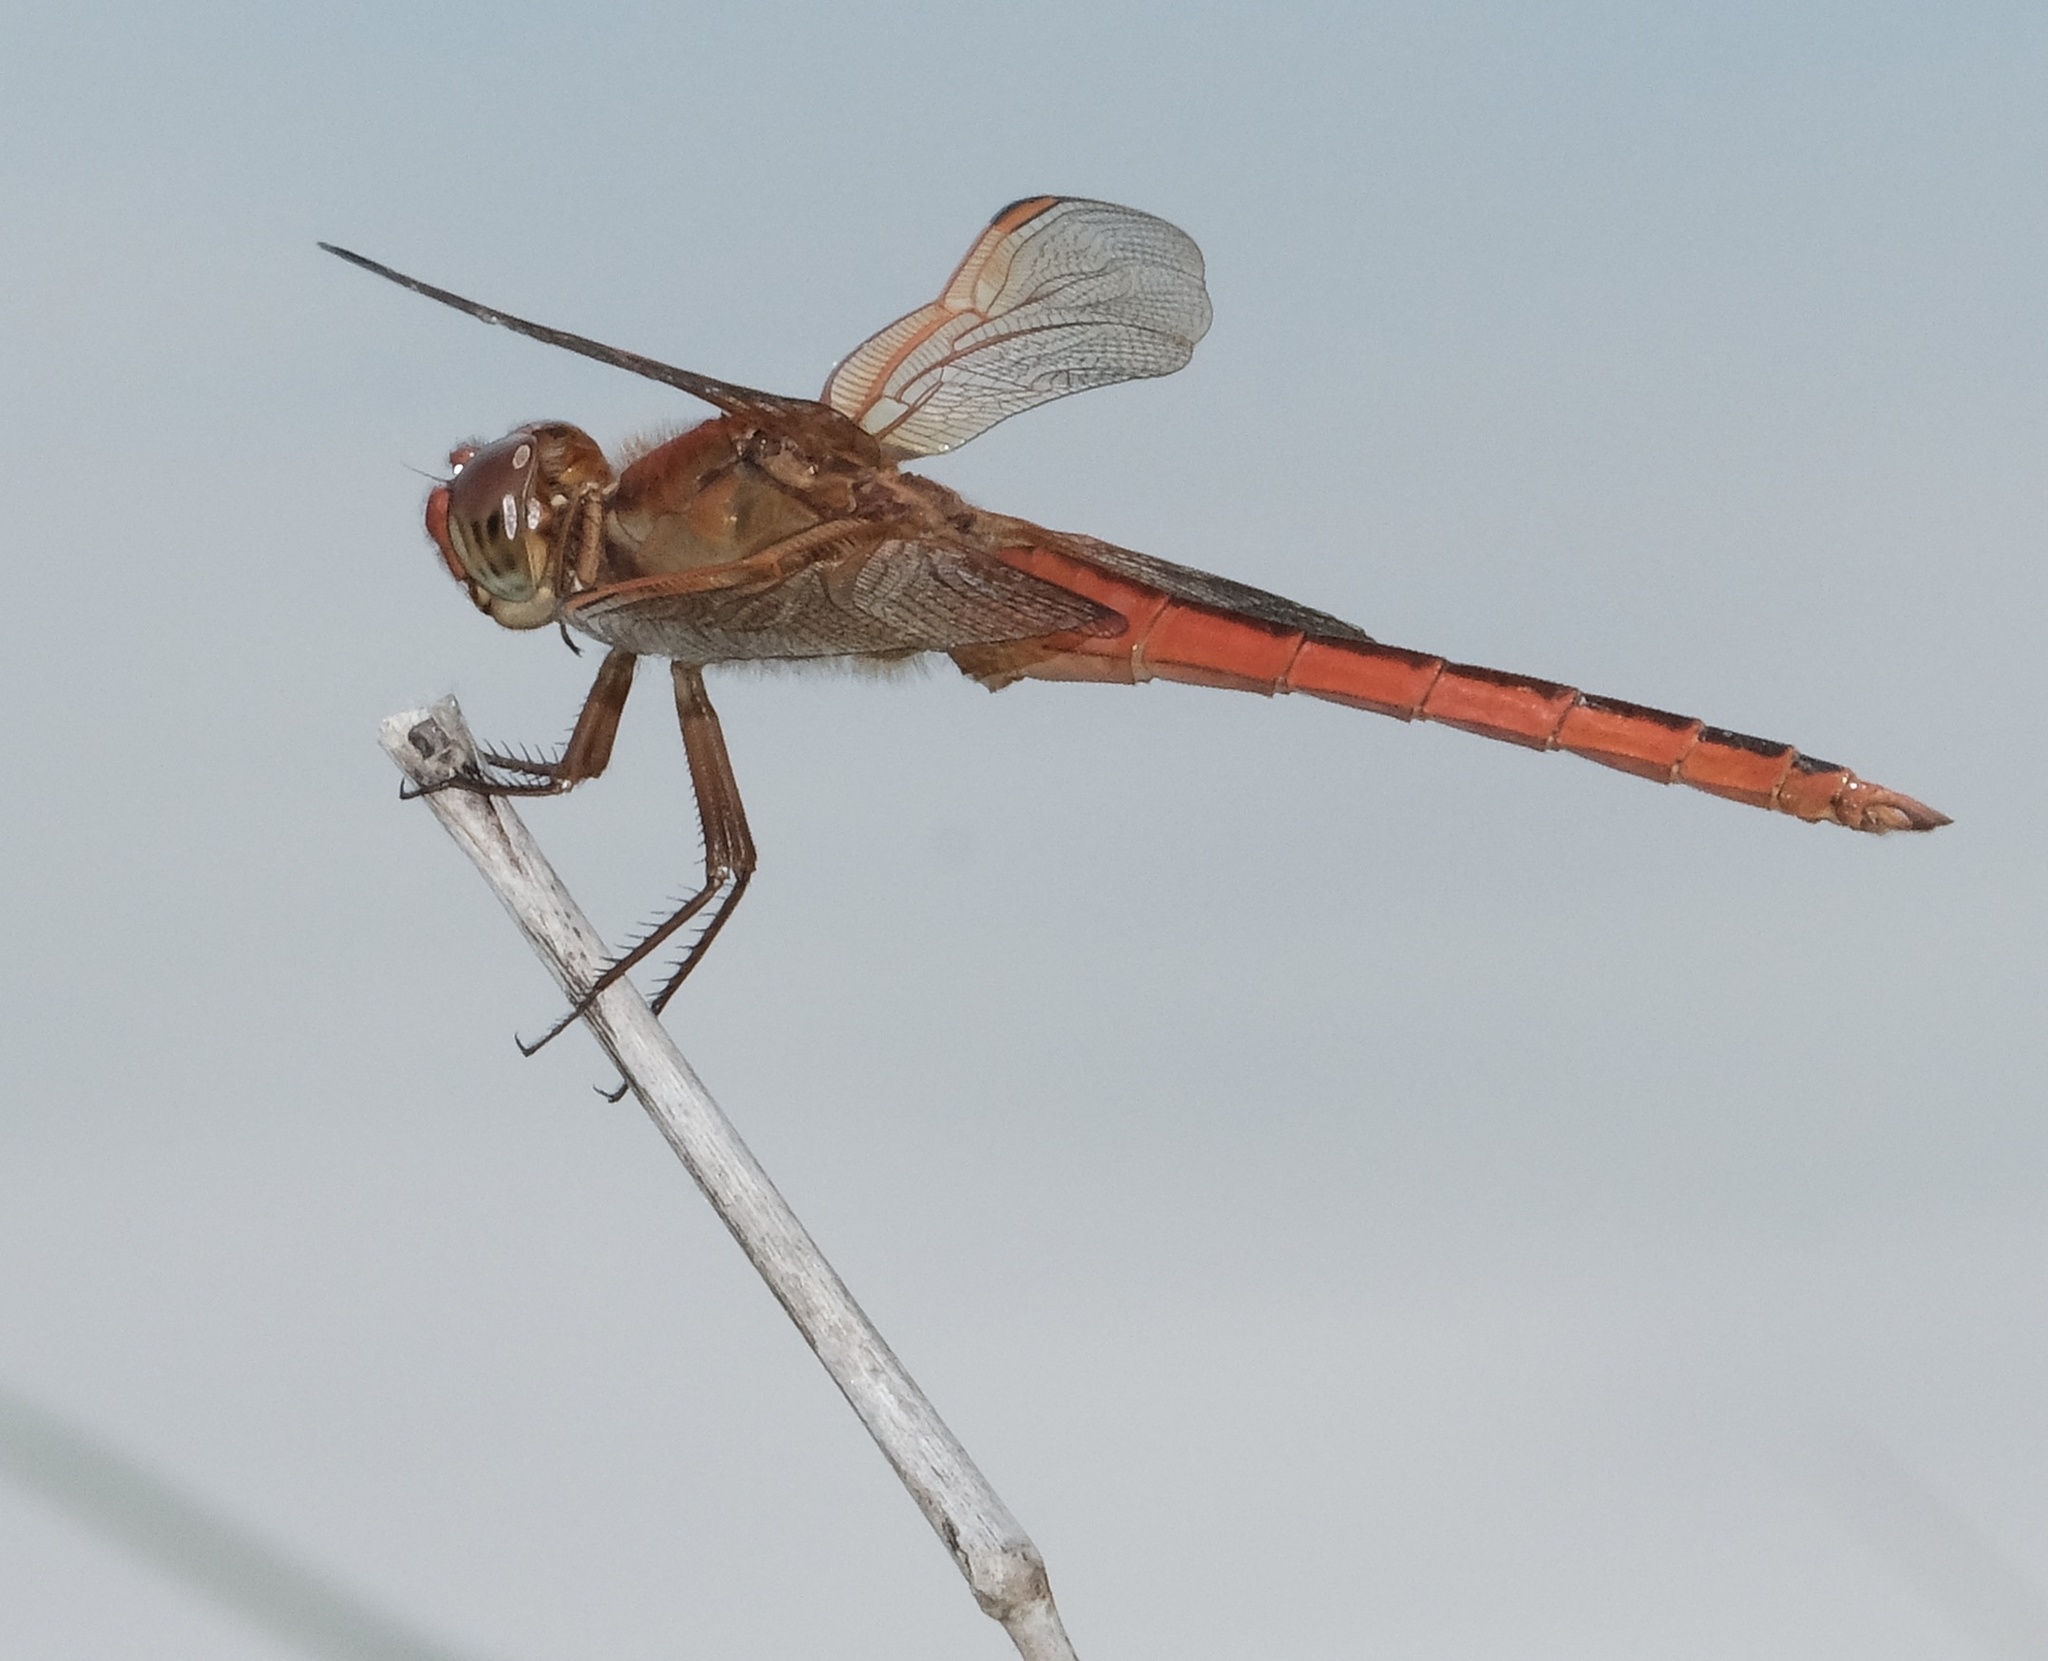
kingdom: Animalia
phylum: Arthropoda
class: Insecta
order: Odonata
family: Libellulidae
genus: Libellula
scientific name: Libellula needhami
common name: Needham's skimmer
